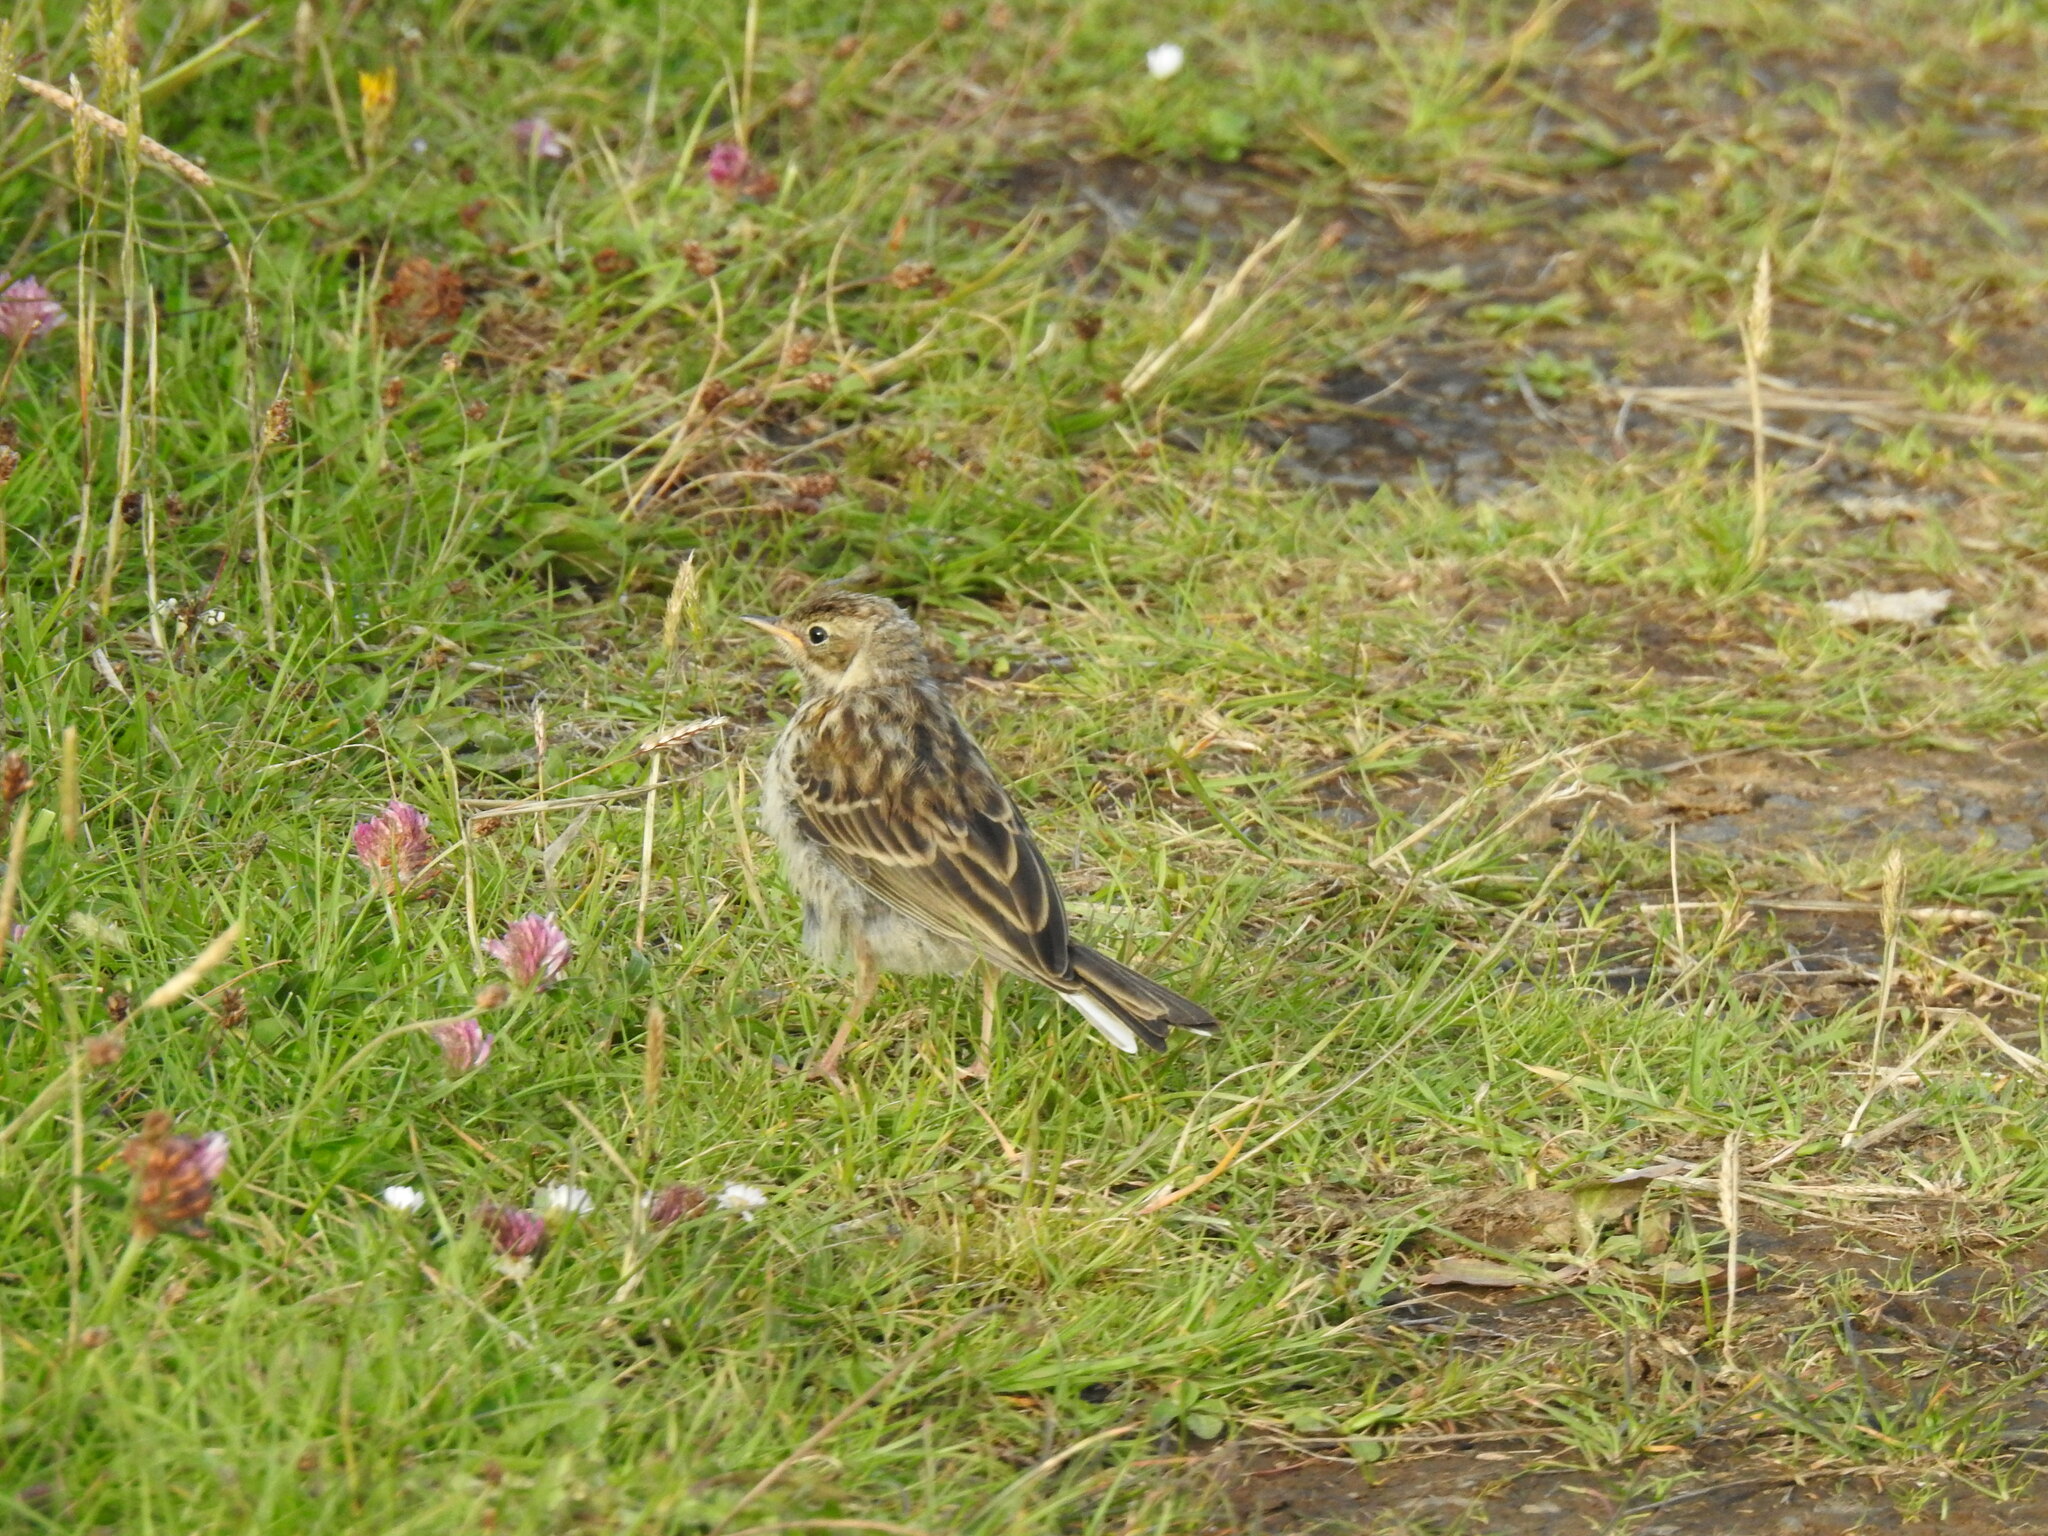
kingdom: Animalia
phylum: Chordata
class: Aves
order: Passeriformes
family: Motacillidae
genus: Anthus
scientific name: Anthus pratensis
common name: Meadow pipit
